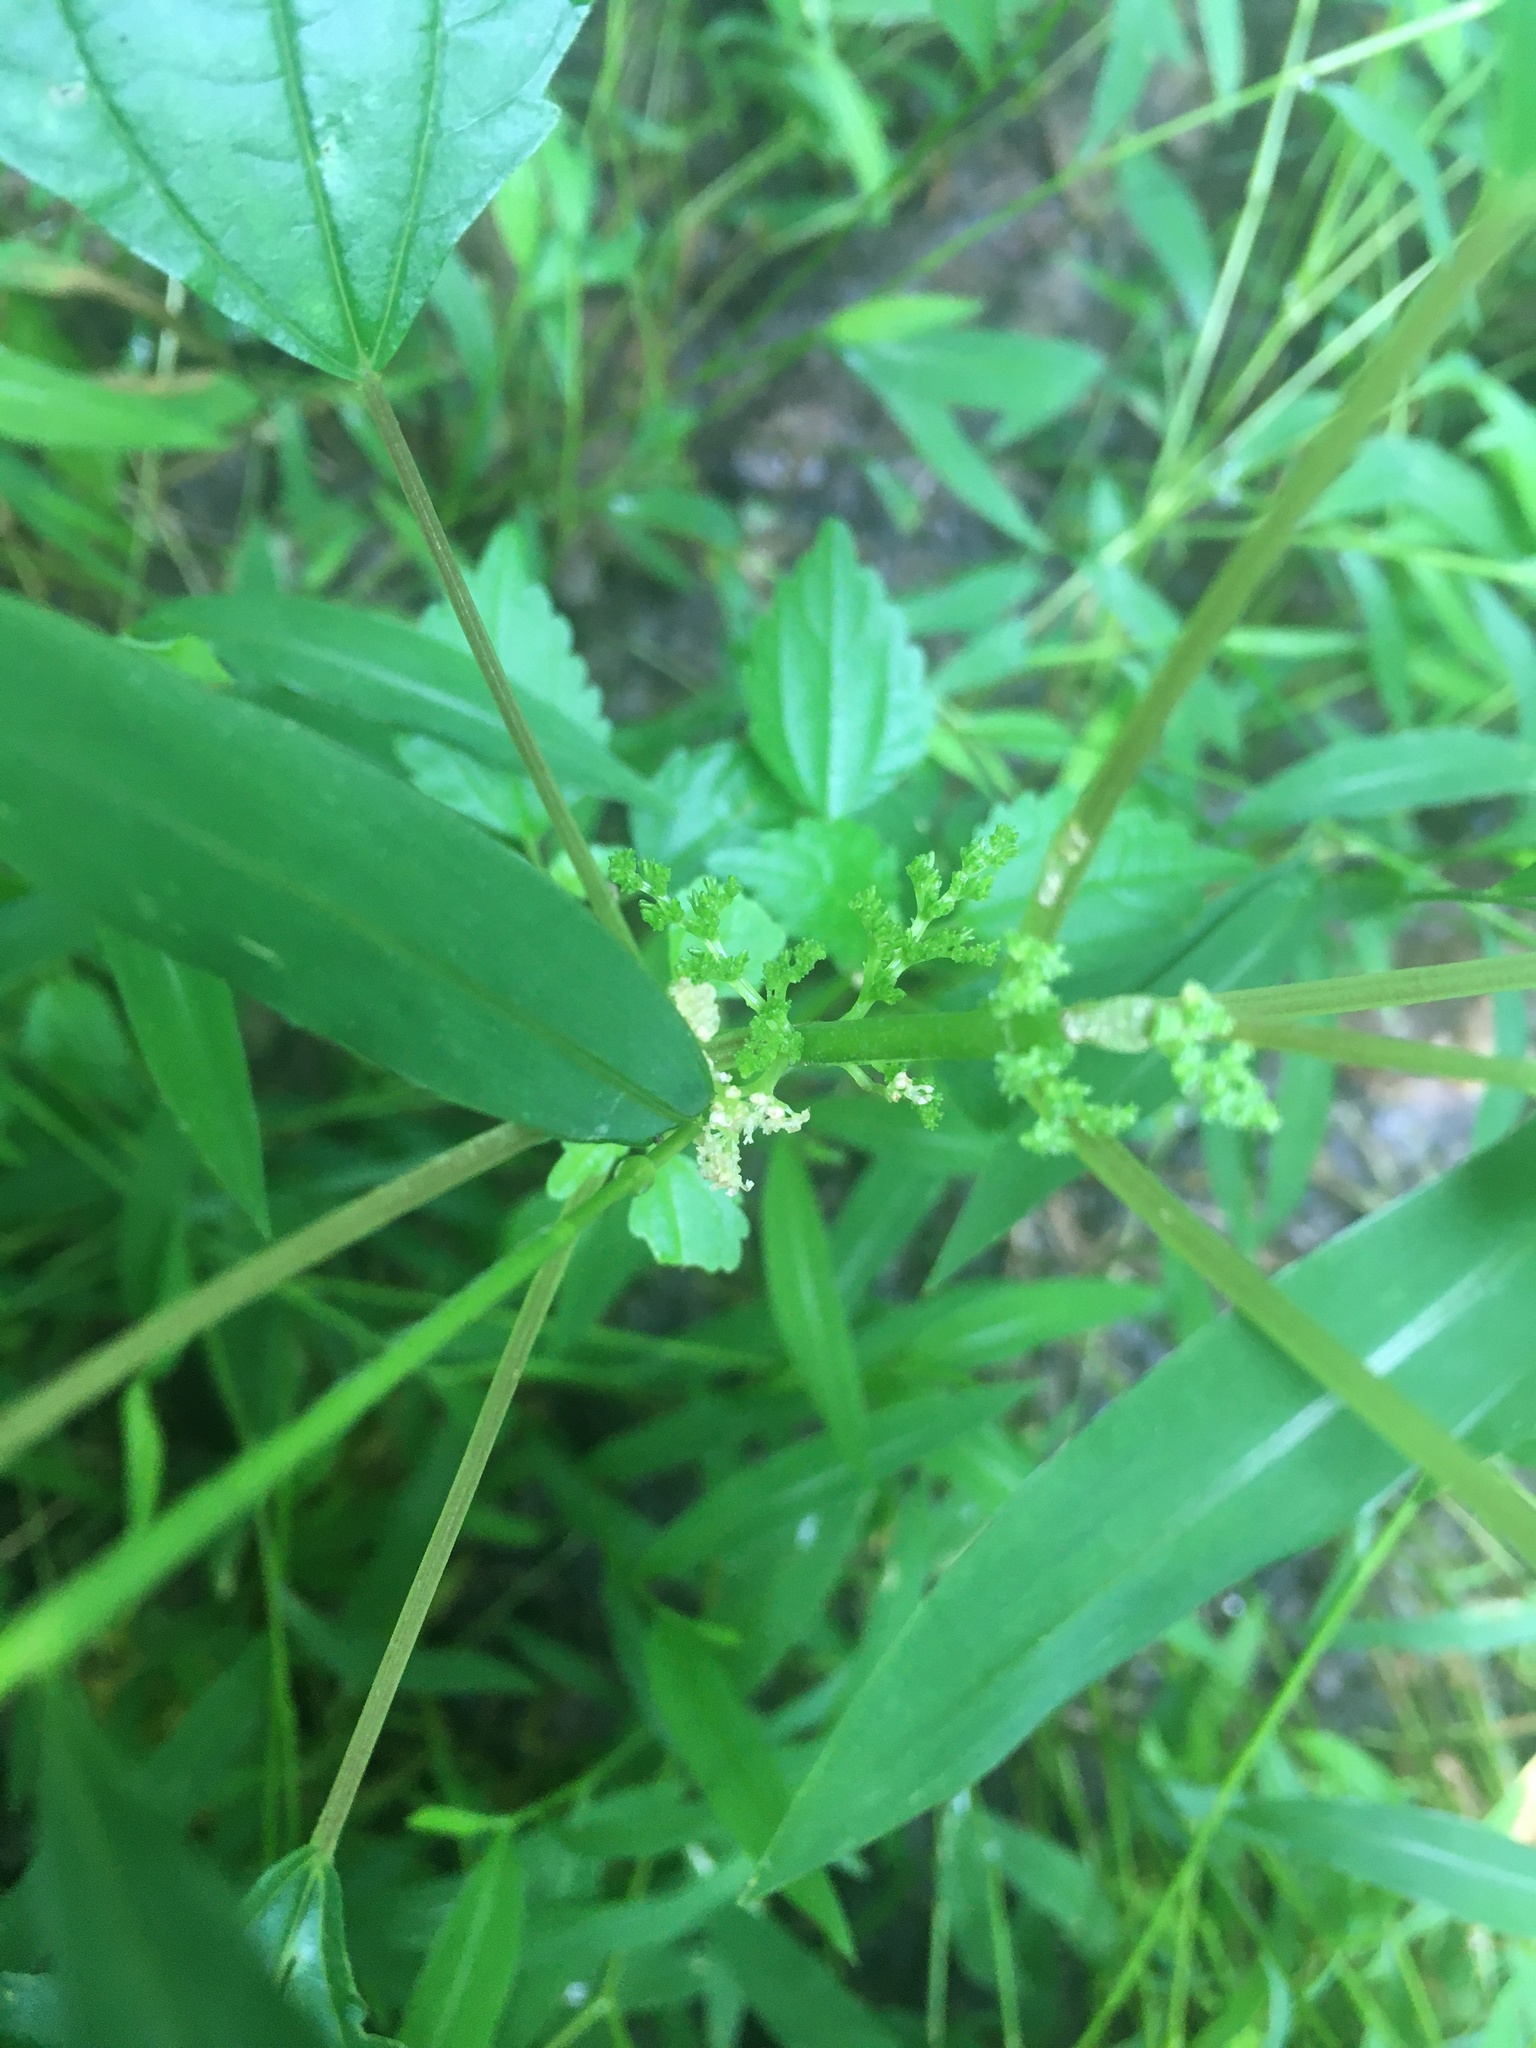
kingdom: Plantae
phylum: Tracheophyta
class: Magnoliopsida
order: Rosales
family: Urticaceae
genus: Pilea
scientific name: Pilea pumila
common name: Clearweed
